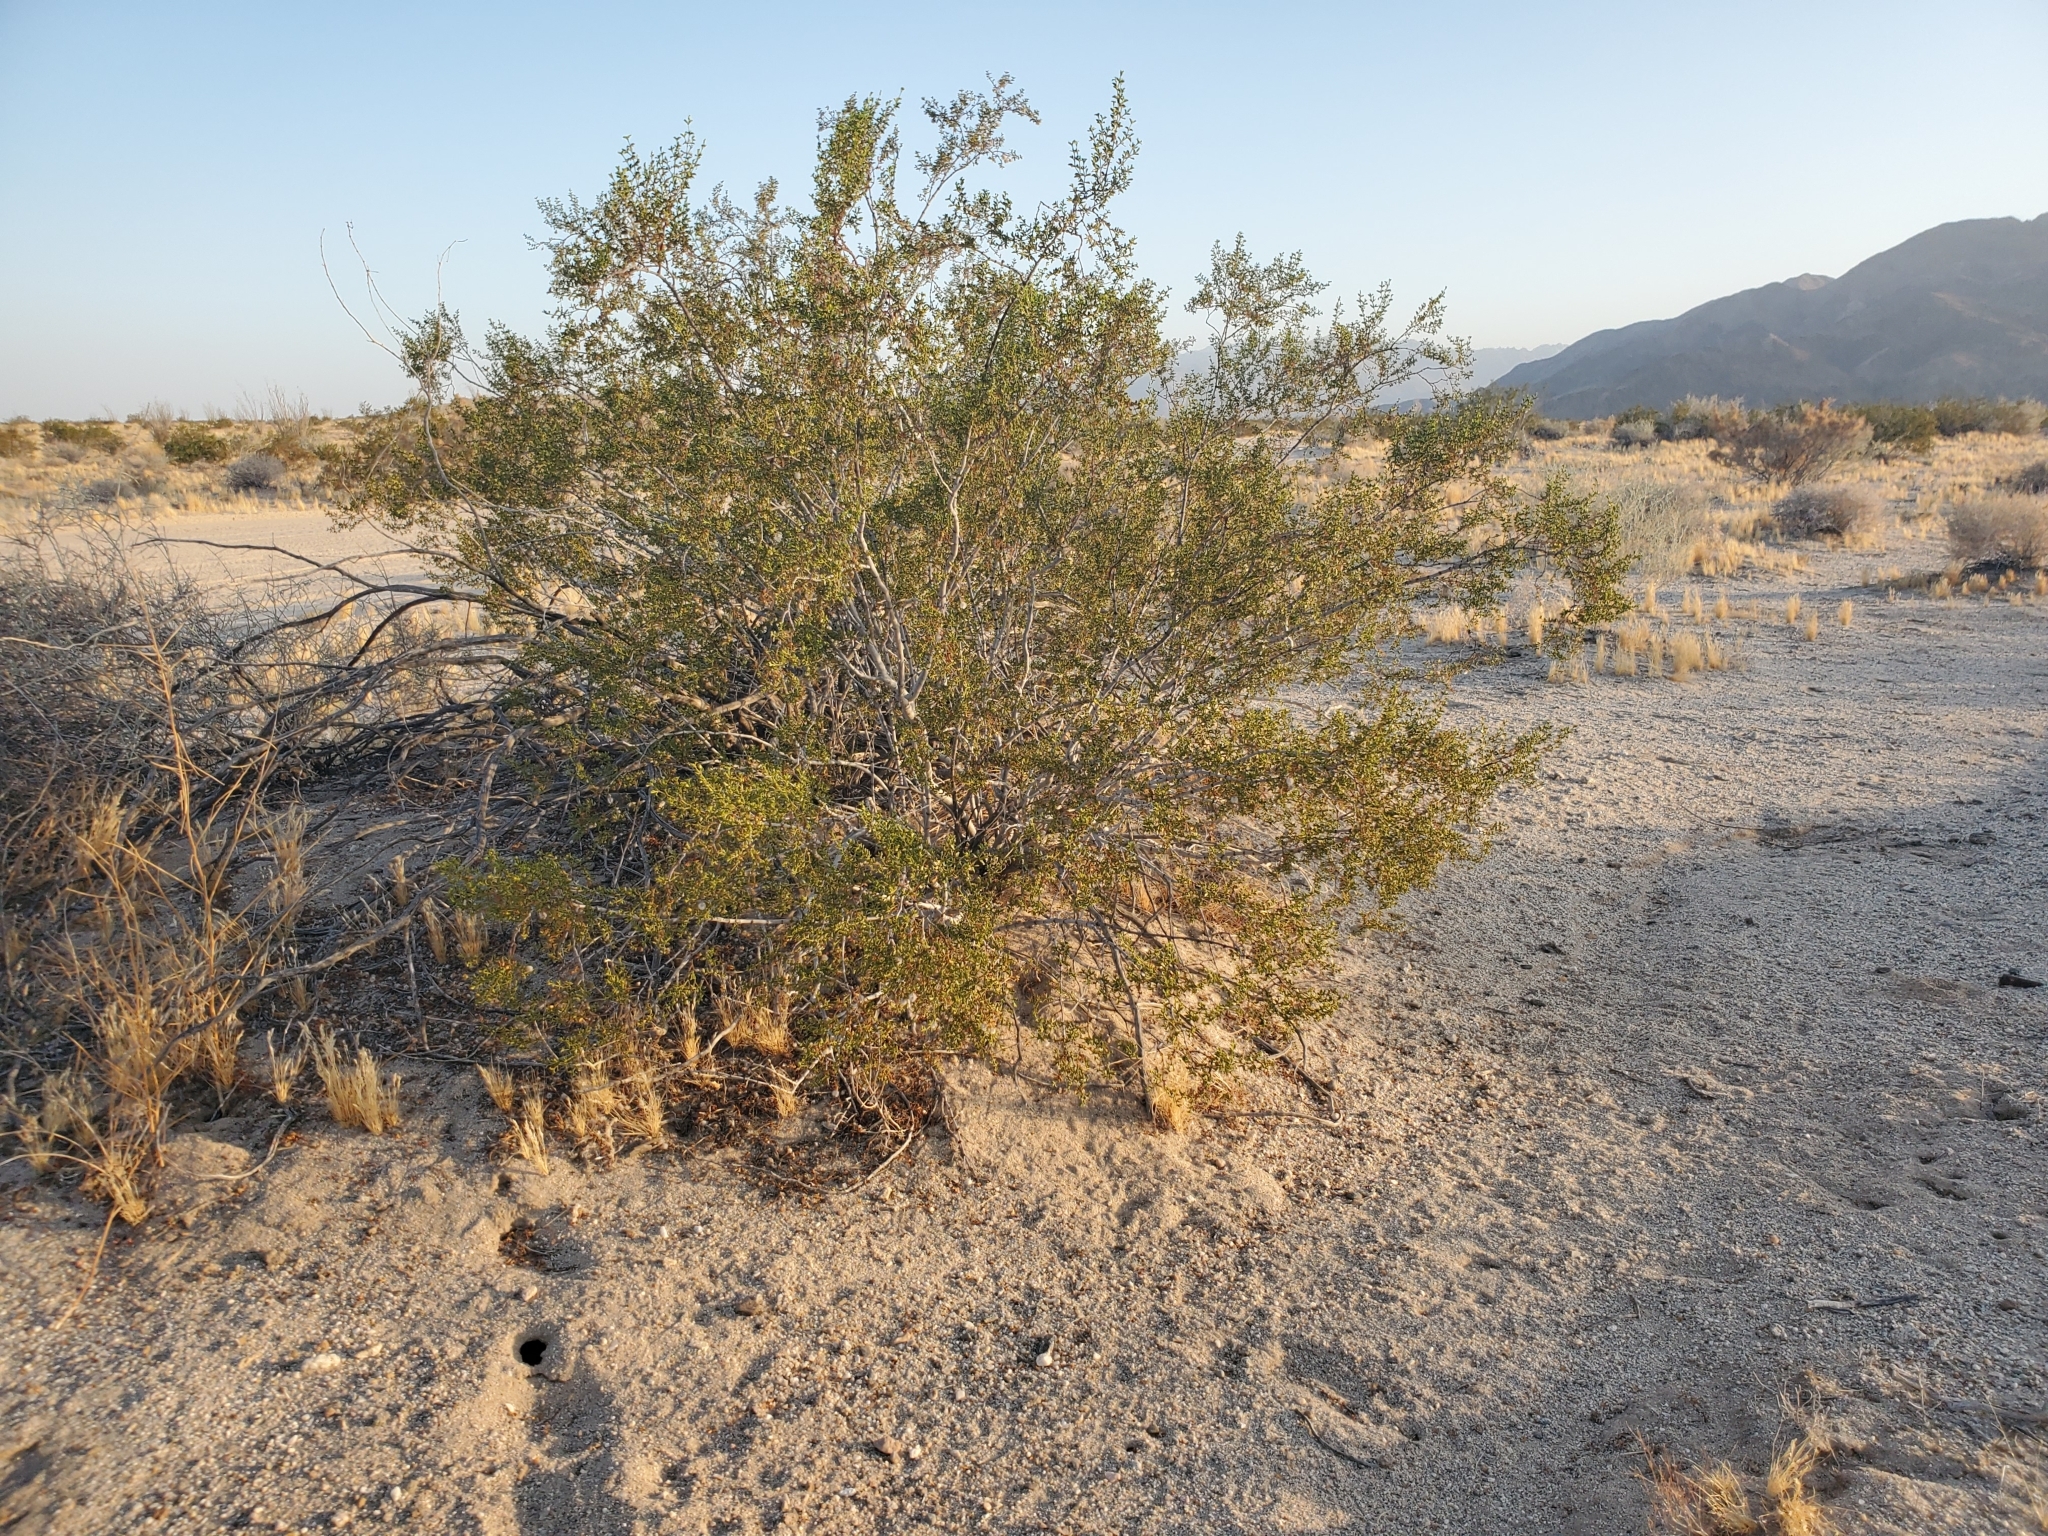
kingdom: Plantae
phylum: Tracheophyta
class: Magnoliopsida
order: Zygophyllales
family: Zygophyllaceae
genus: Larrea
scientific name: Larrea tridentata
